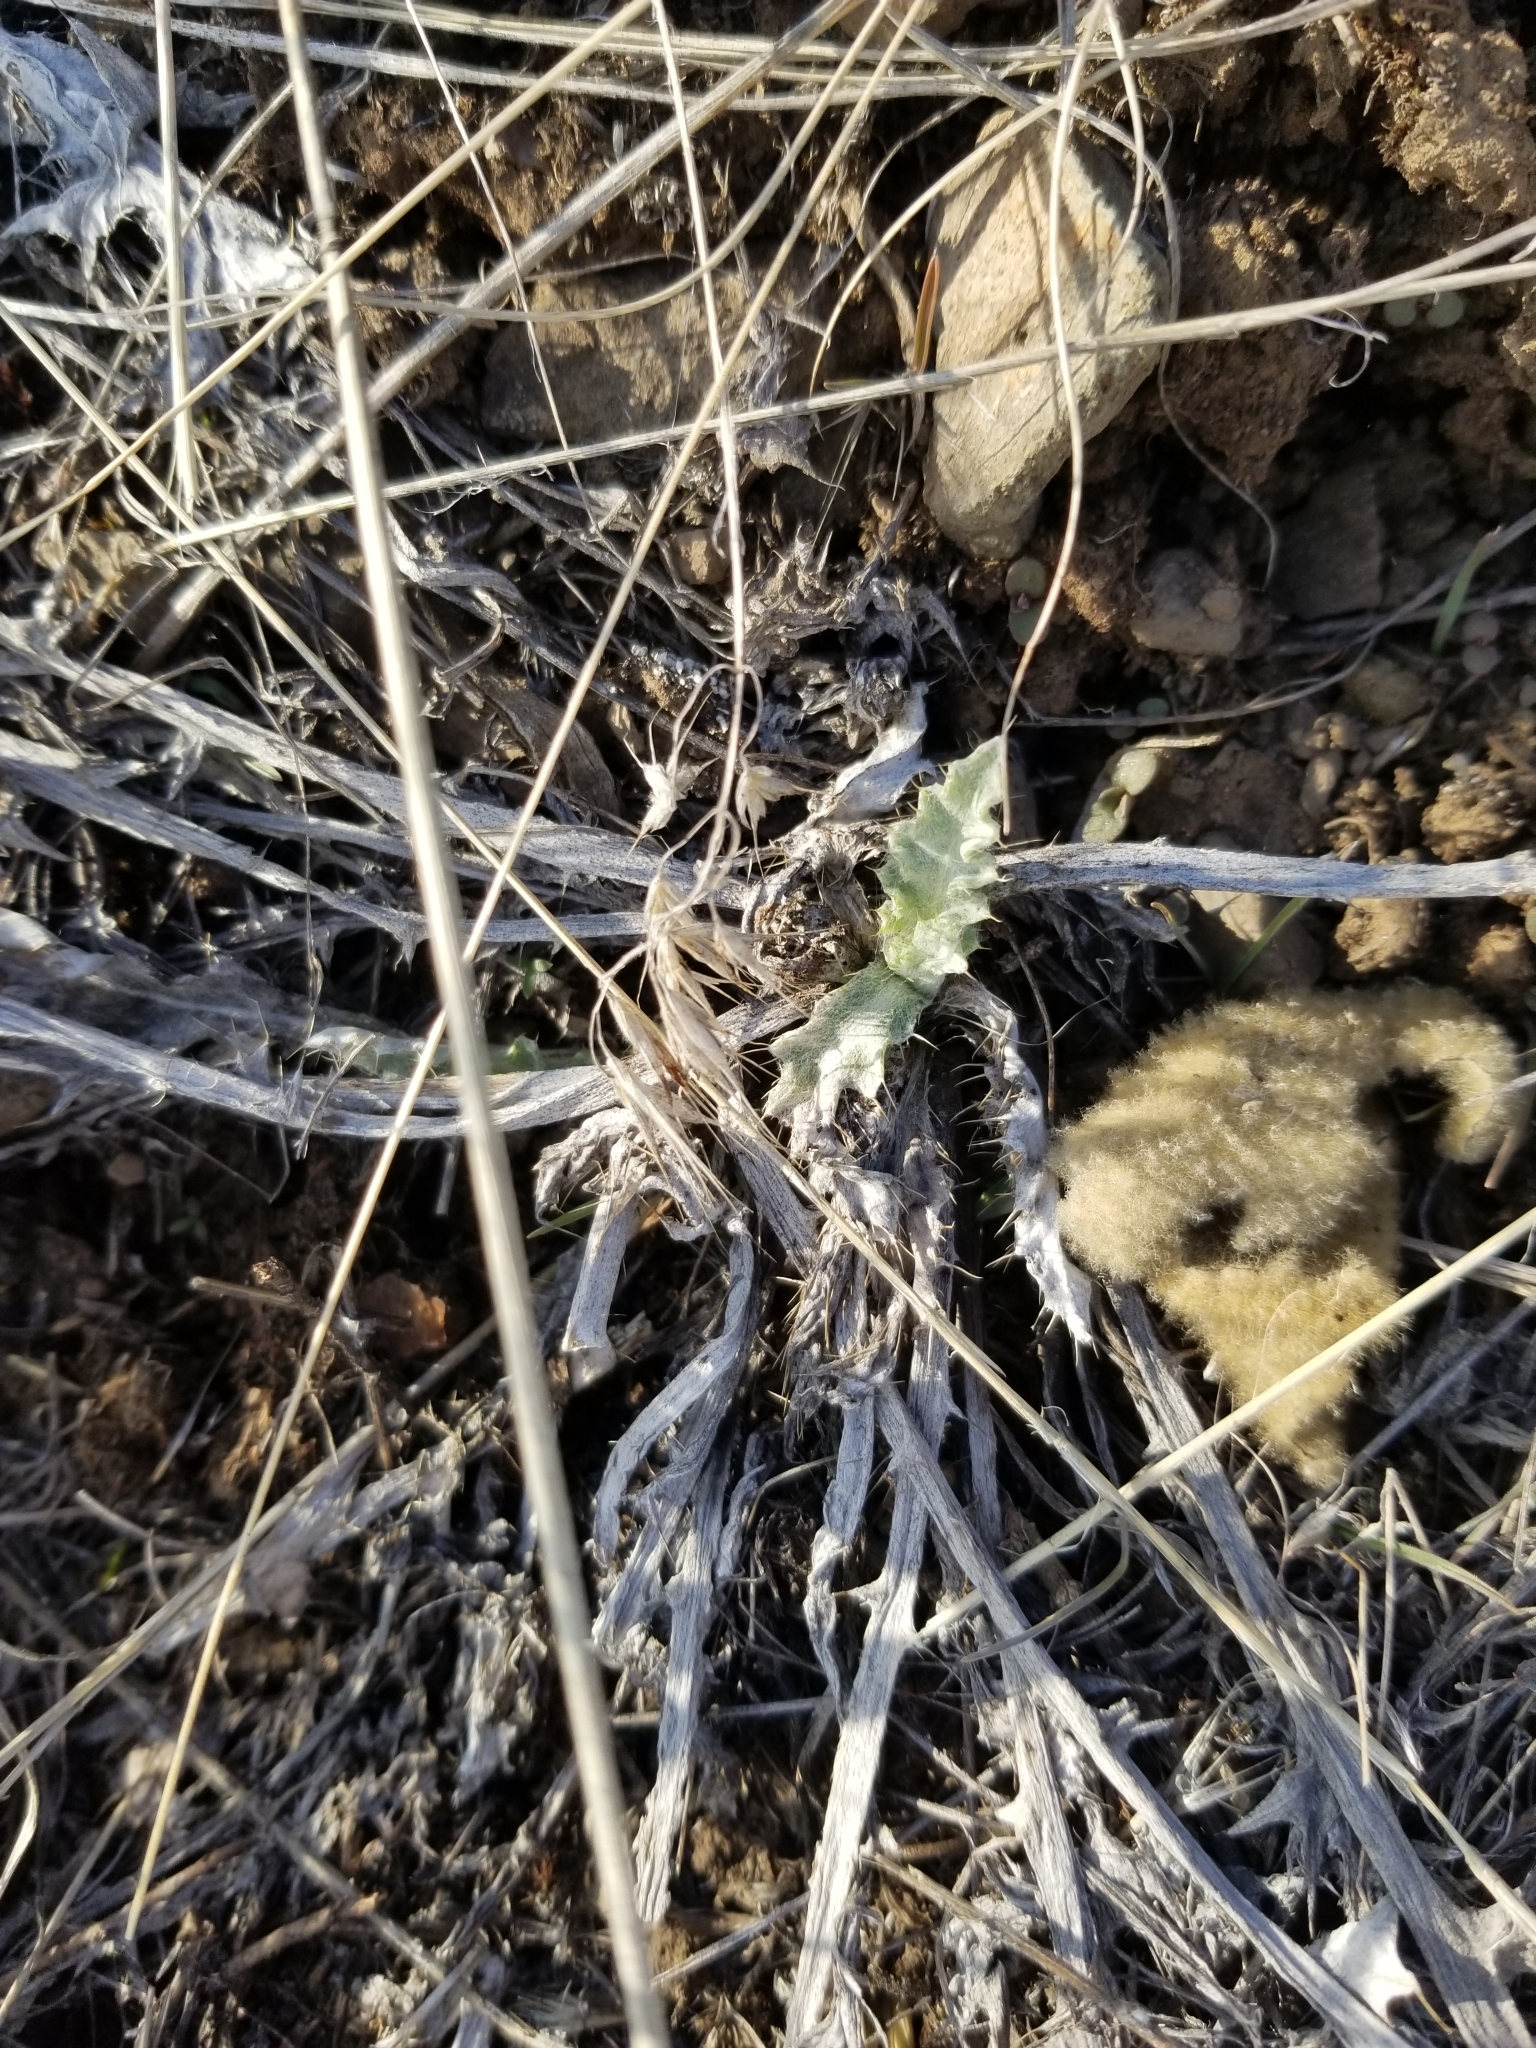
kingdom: Plantae
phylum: Tracheophyta
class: Magnoliopsida
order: Asterales
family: Asteraceae
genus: Cirsium
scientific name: Cirsium undulatum
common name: Pasture thistle
